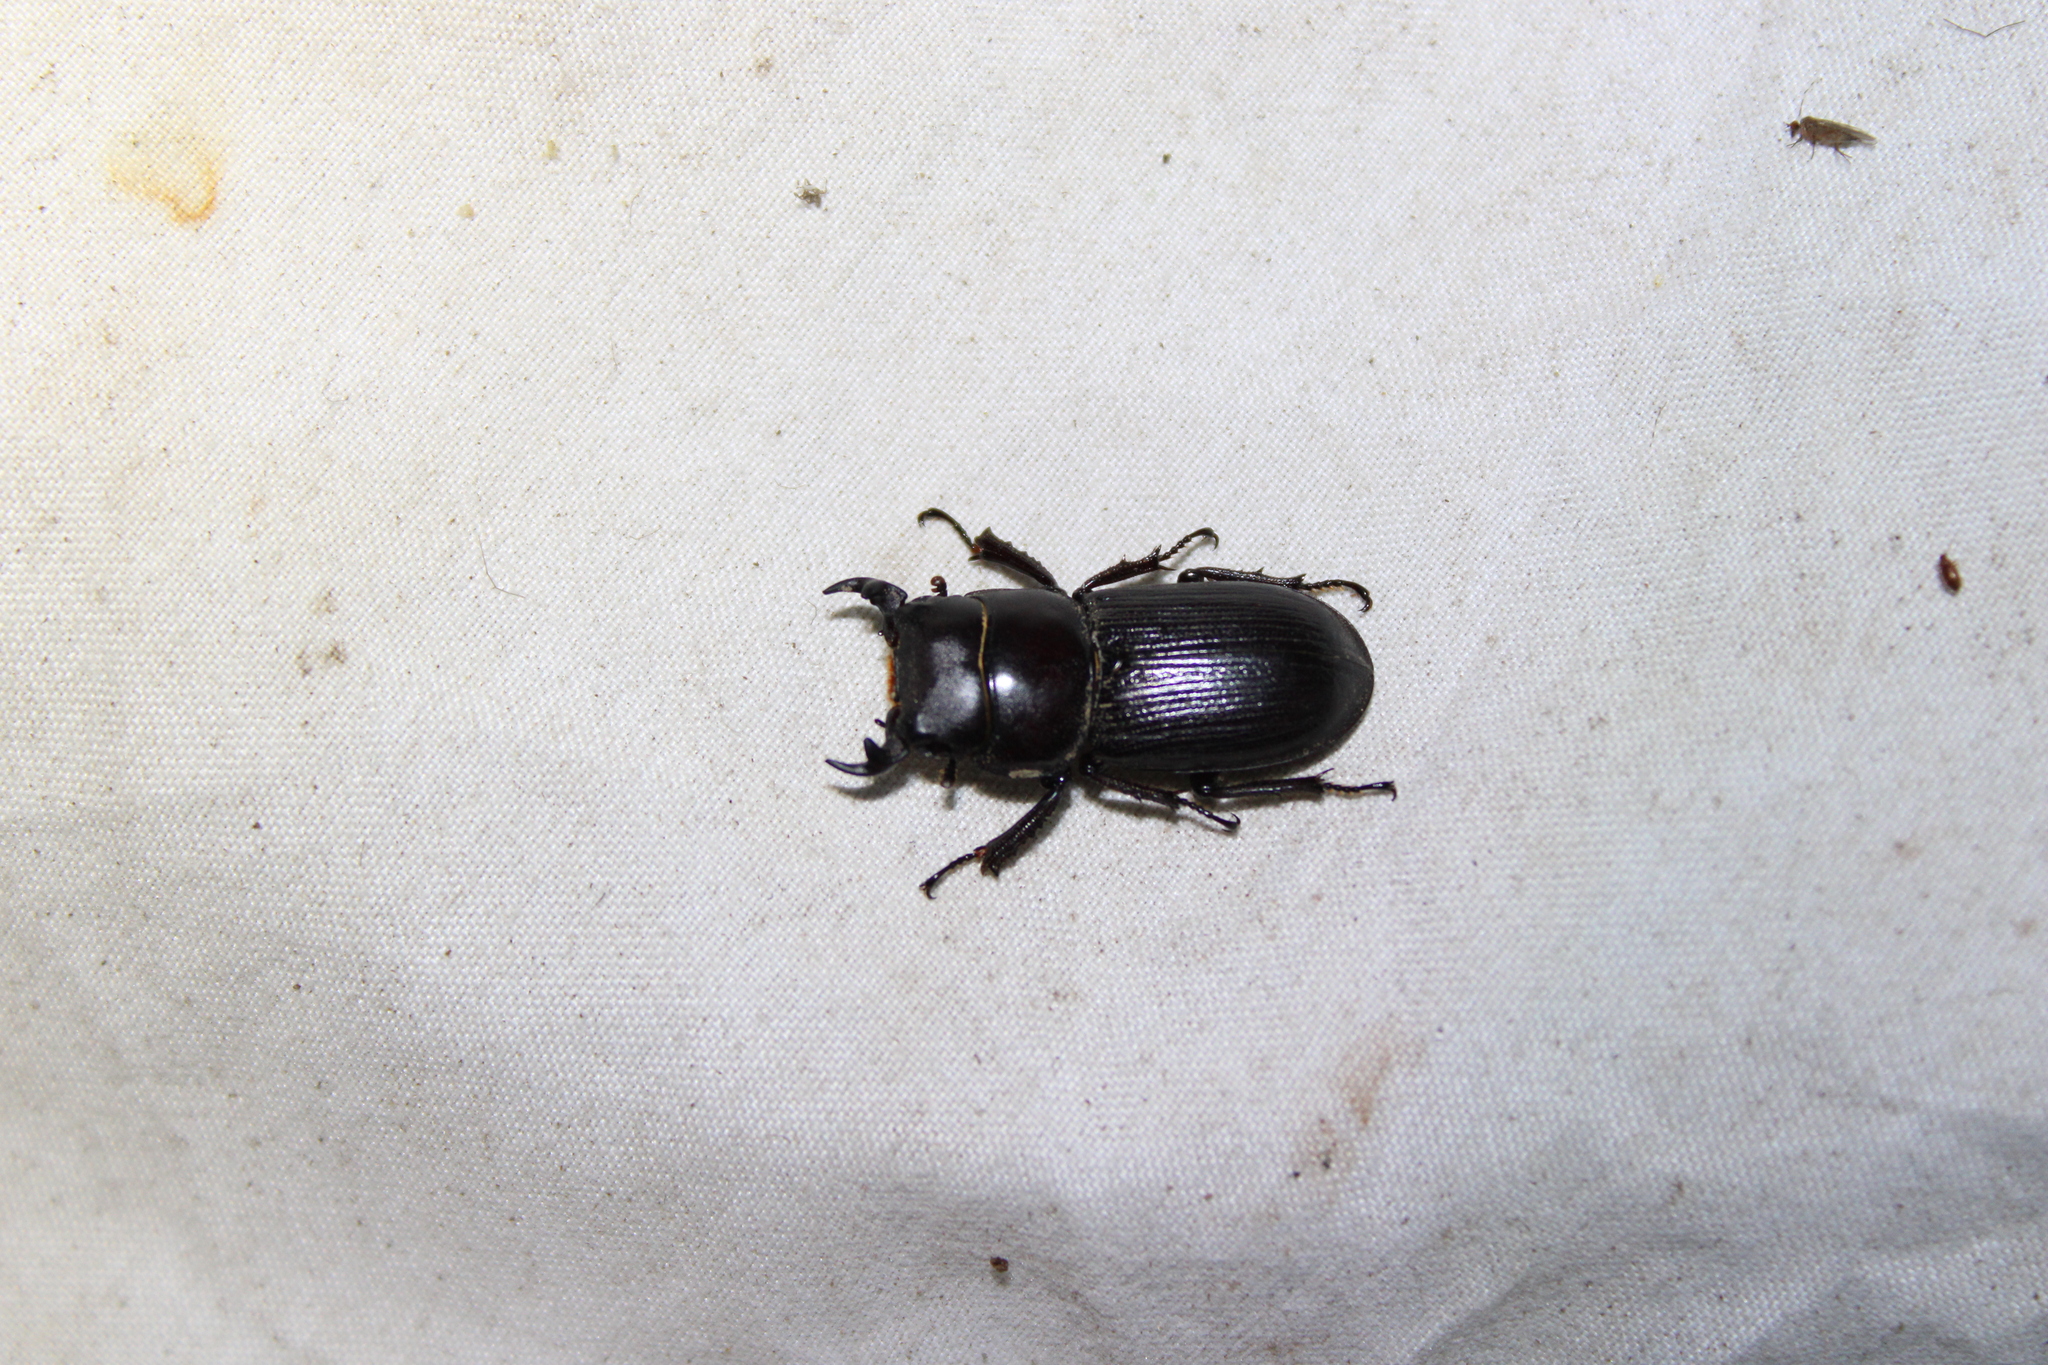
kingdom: Animalia
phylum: Arthropoda
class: Insecta
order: Coleoptera
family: Lucanidae
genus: Dorcus
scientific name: Dorcus parallelus
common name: Antelope beetle
